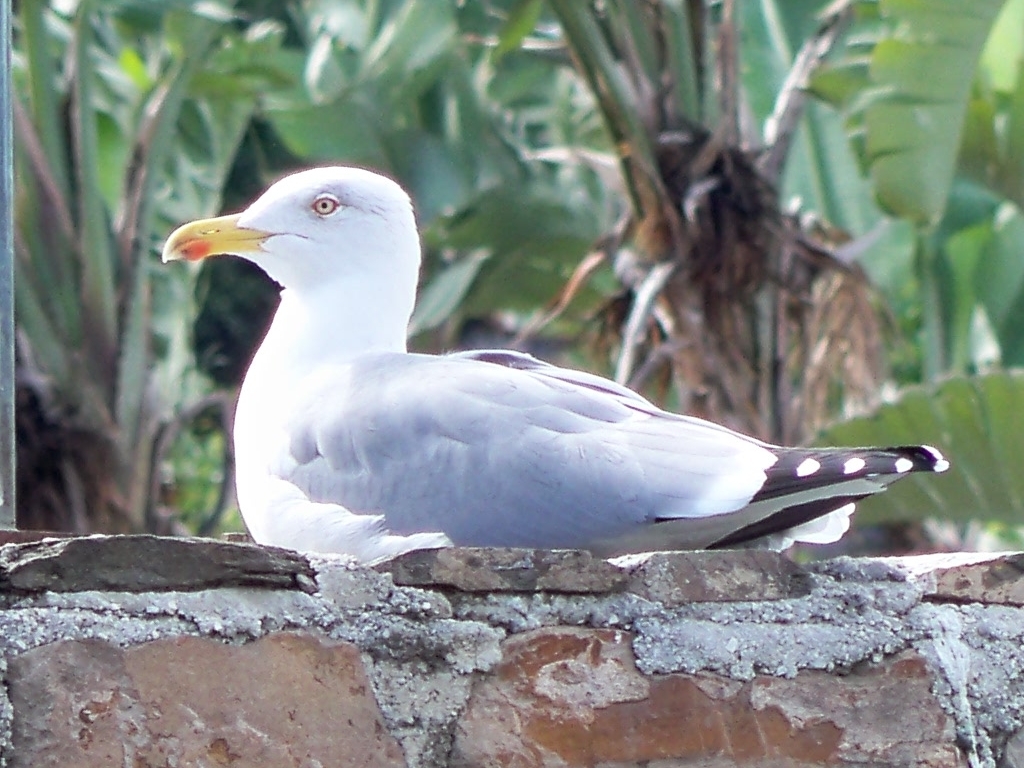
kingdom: Animalia
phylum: Chordata
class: Aves
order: Charadriiformes
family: Laridae
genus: Larus
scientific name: Larus michahellis
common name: Yellow-legged gull
